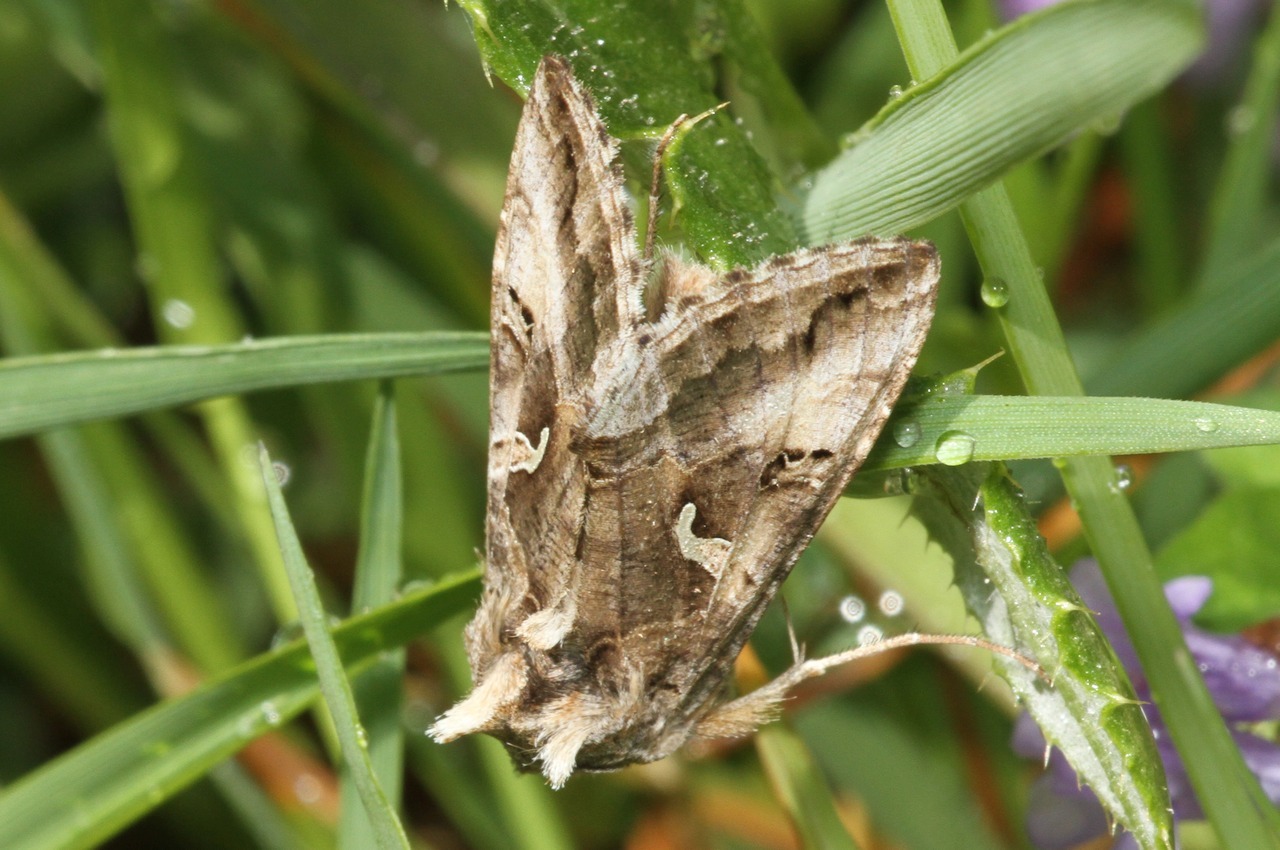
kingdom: Animalia
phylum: Arthropoda
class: Insecta
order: Lepidoptera
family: Noctuidae
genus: Autographa
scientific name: Autographa gamma
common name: Silver y
